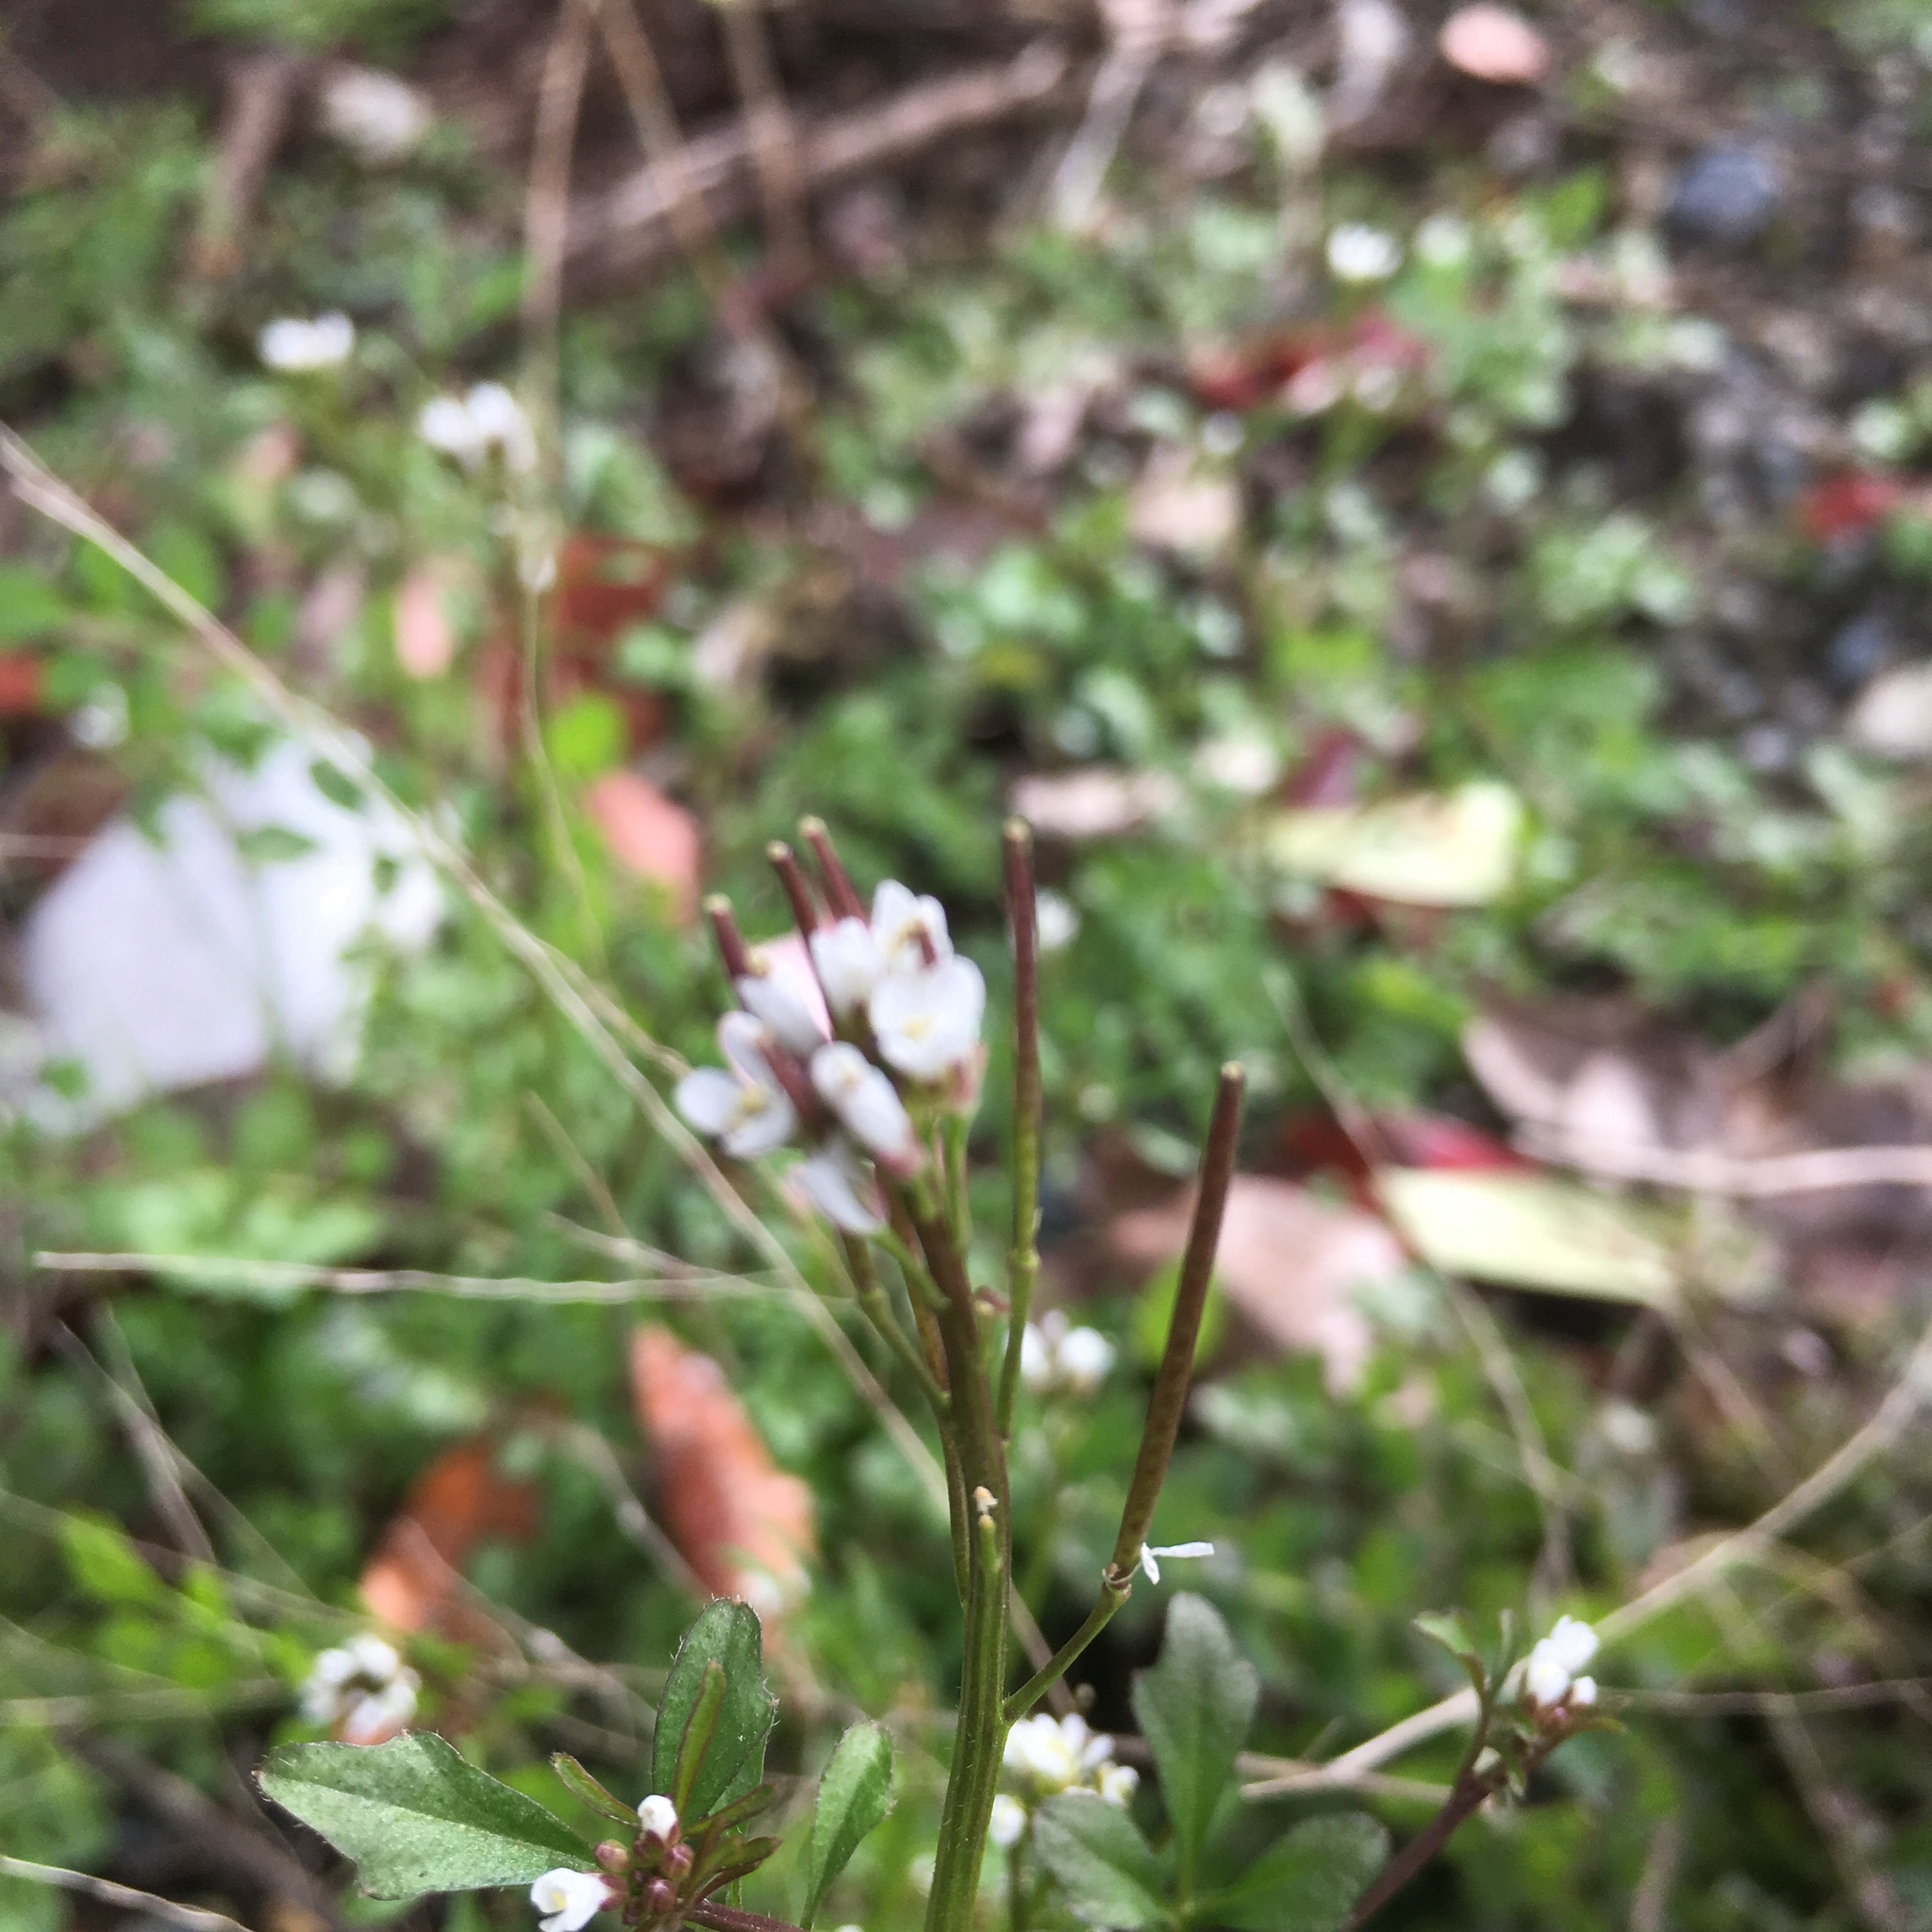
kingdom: Plantae
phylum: Tracheophyta
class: Magnoliopsida
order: Brassicales
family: Brassicaceae
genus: Cardamine
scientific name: Cardamine hirsuta
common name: Hairy bittercress
